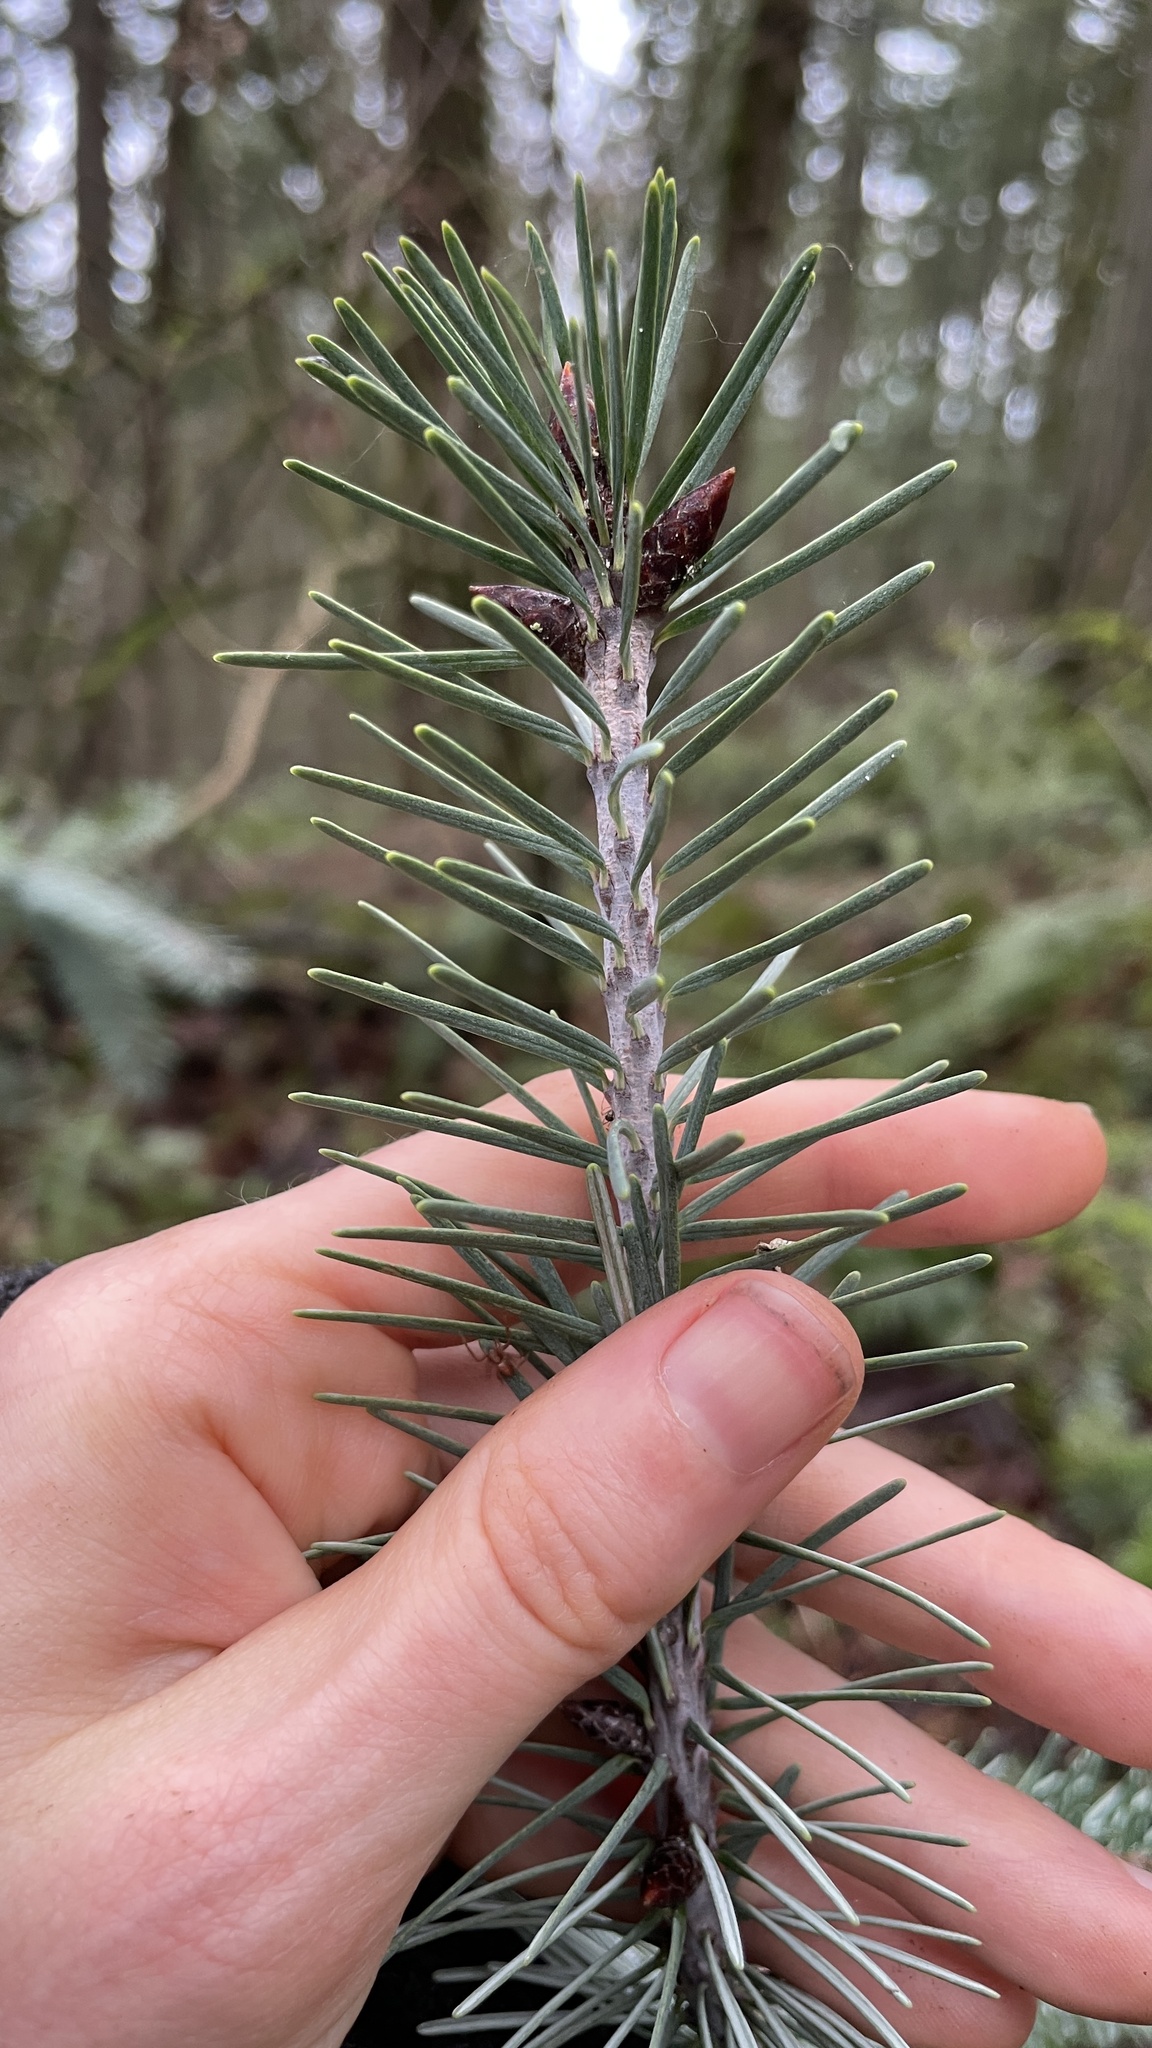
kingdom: Plantae
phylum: Tracheophyta
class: Pinopsida
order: Pinales
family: Pinaceae
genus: Pseudotsuga
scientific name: Pseudotsuga menziesii
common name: Douglas fir
